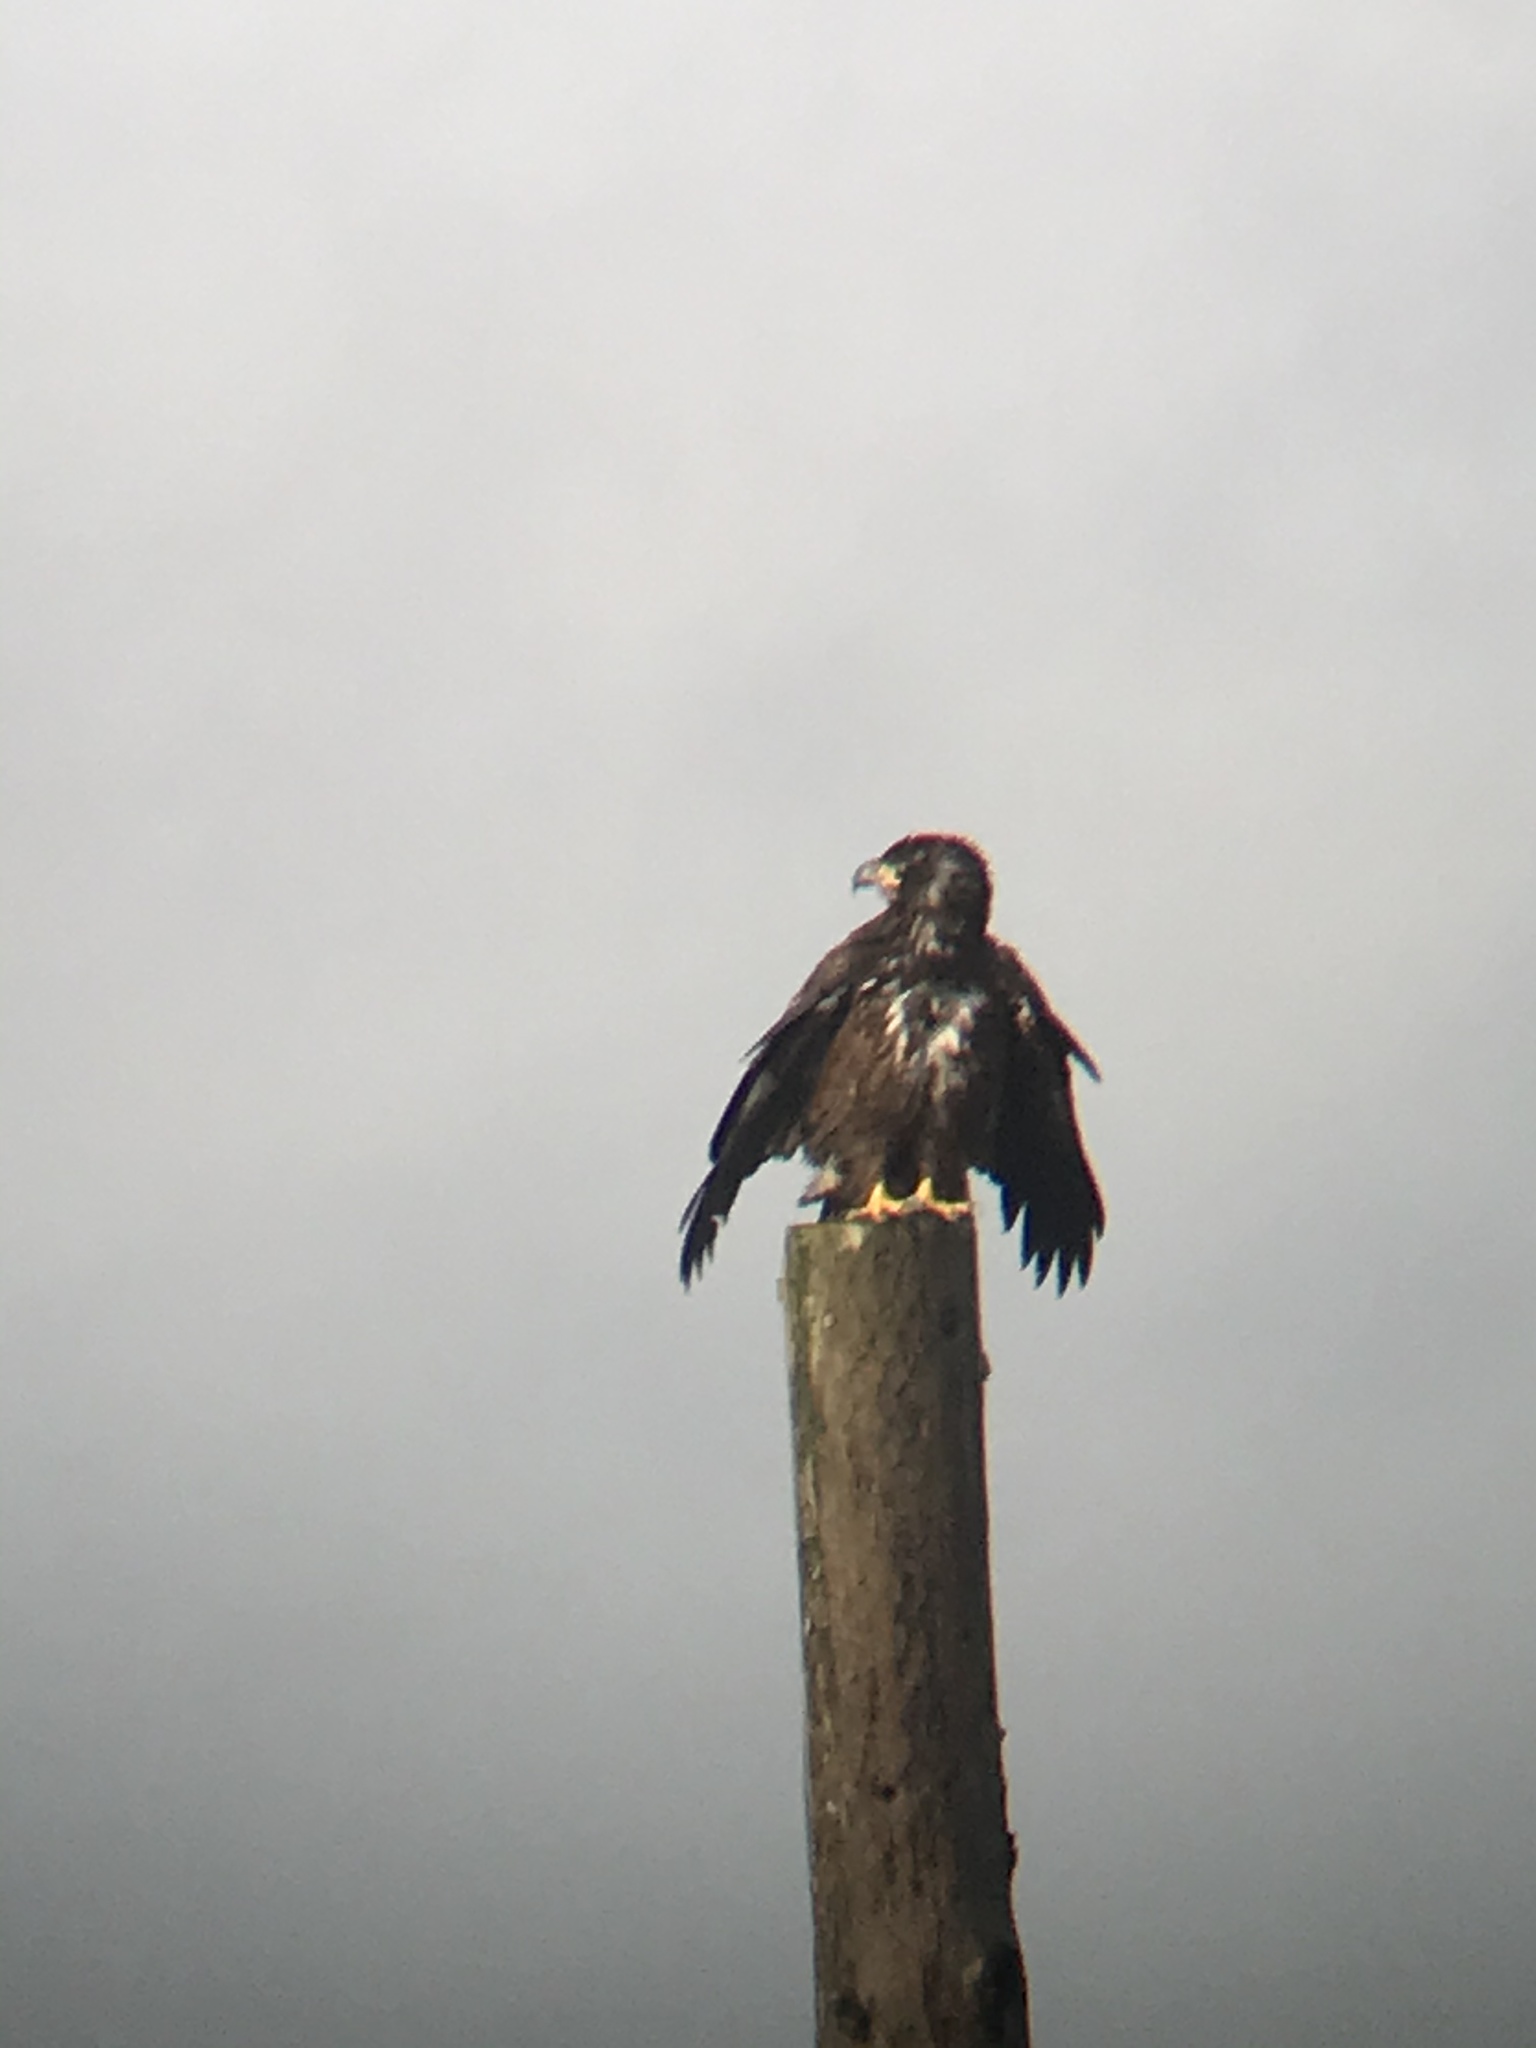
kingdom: Animalia
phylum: Chordata
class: Aves
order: Accipitriformes
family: Accipitridae
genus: Haliaeetus
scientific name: Haliaeetus leucocephalus
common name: Bald eagle
